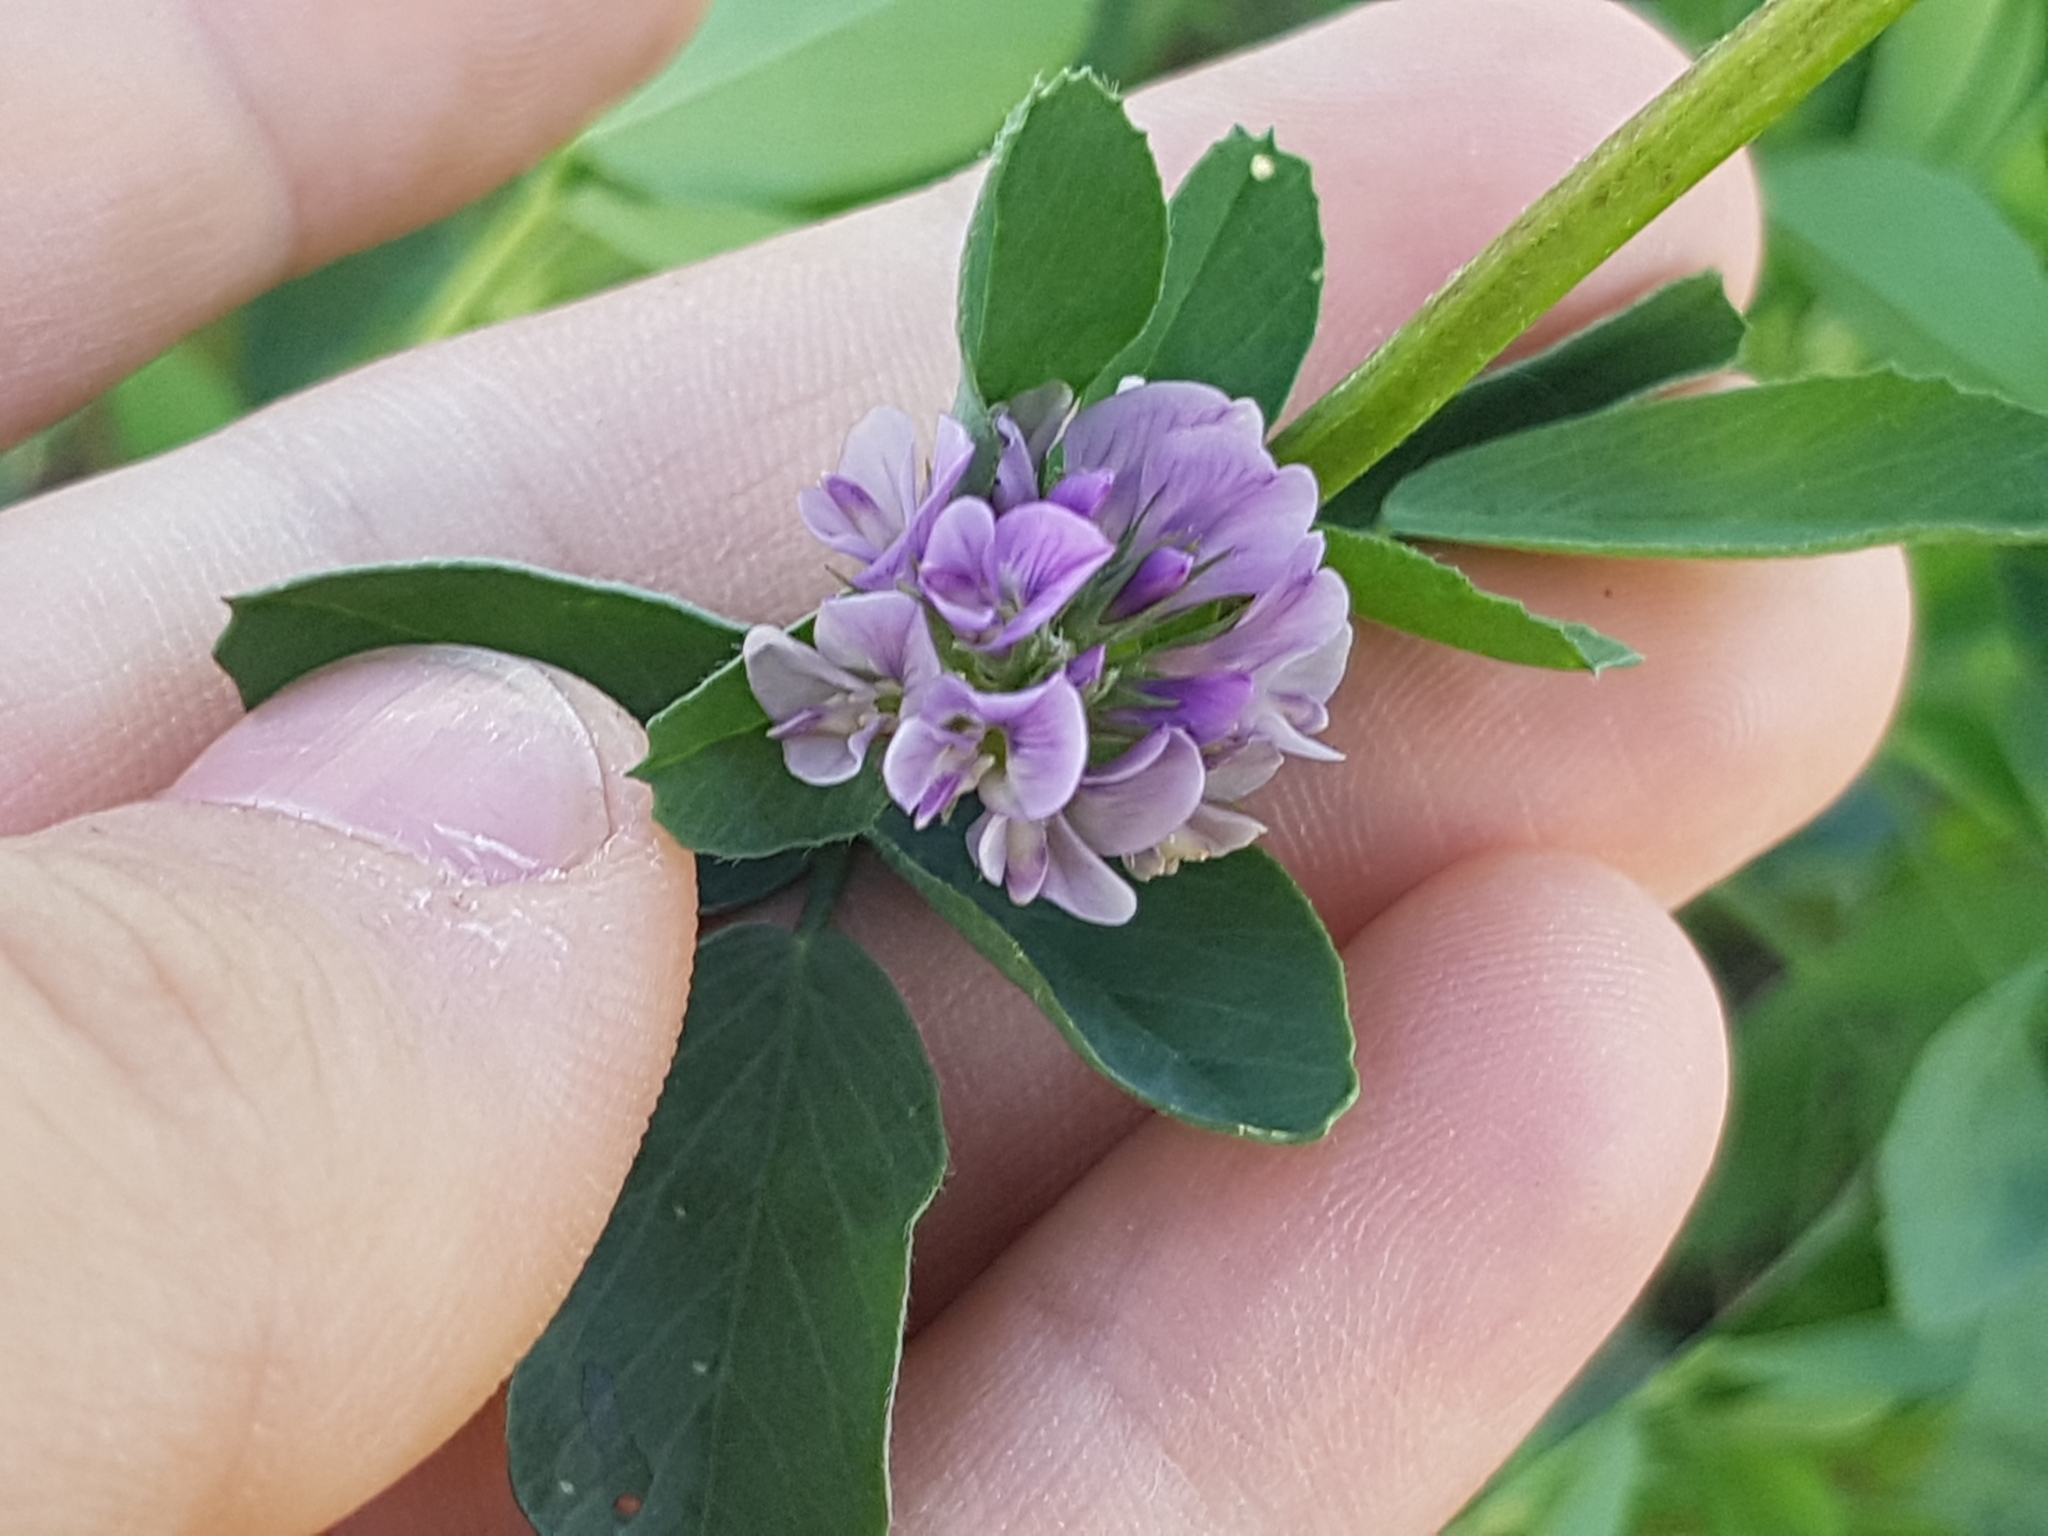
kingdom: Plantae
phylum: Tracheophyta
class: Magnoliopsida
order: Fabales
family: Fabaceae
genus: Medicago
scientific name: Medicago sativa
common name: Alfalfa
